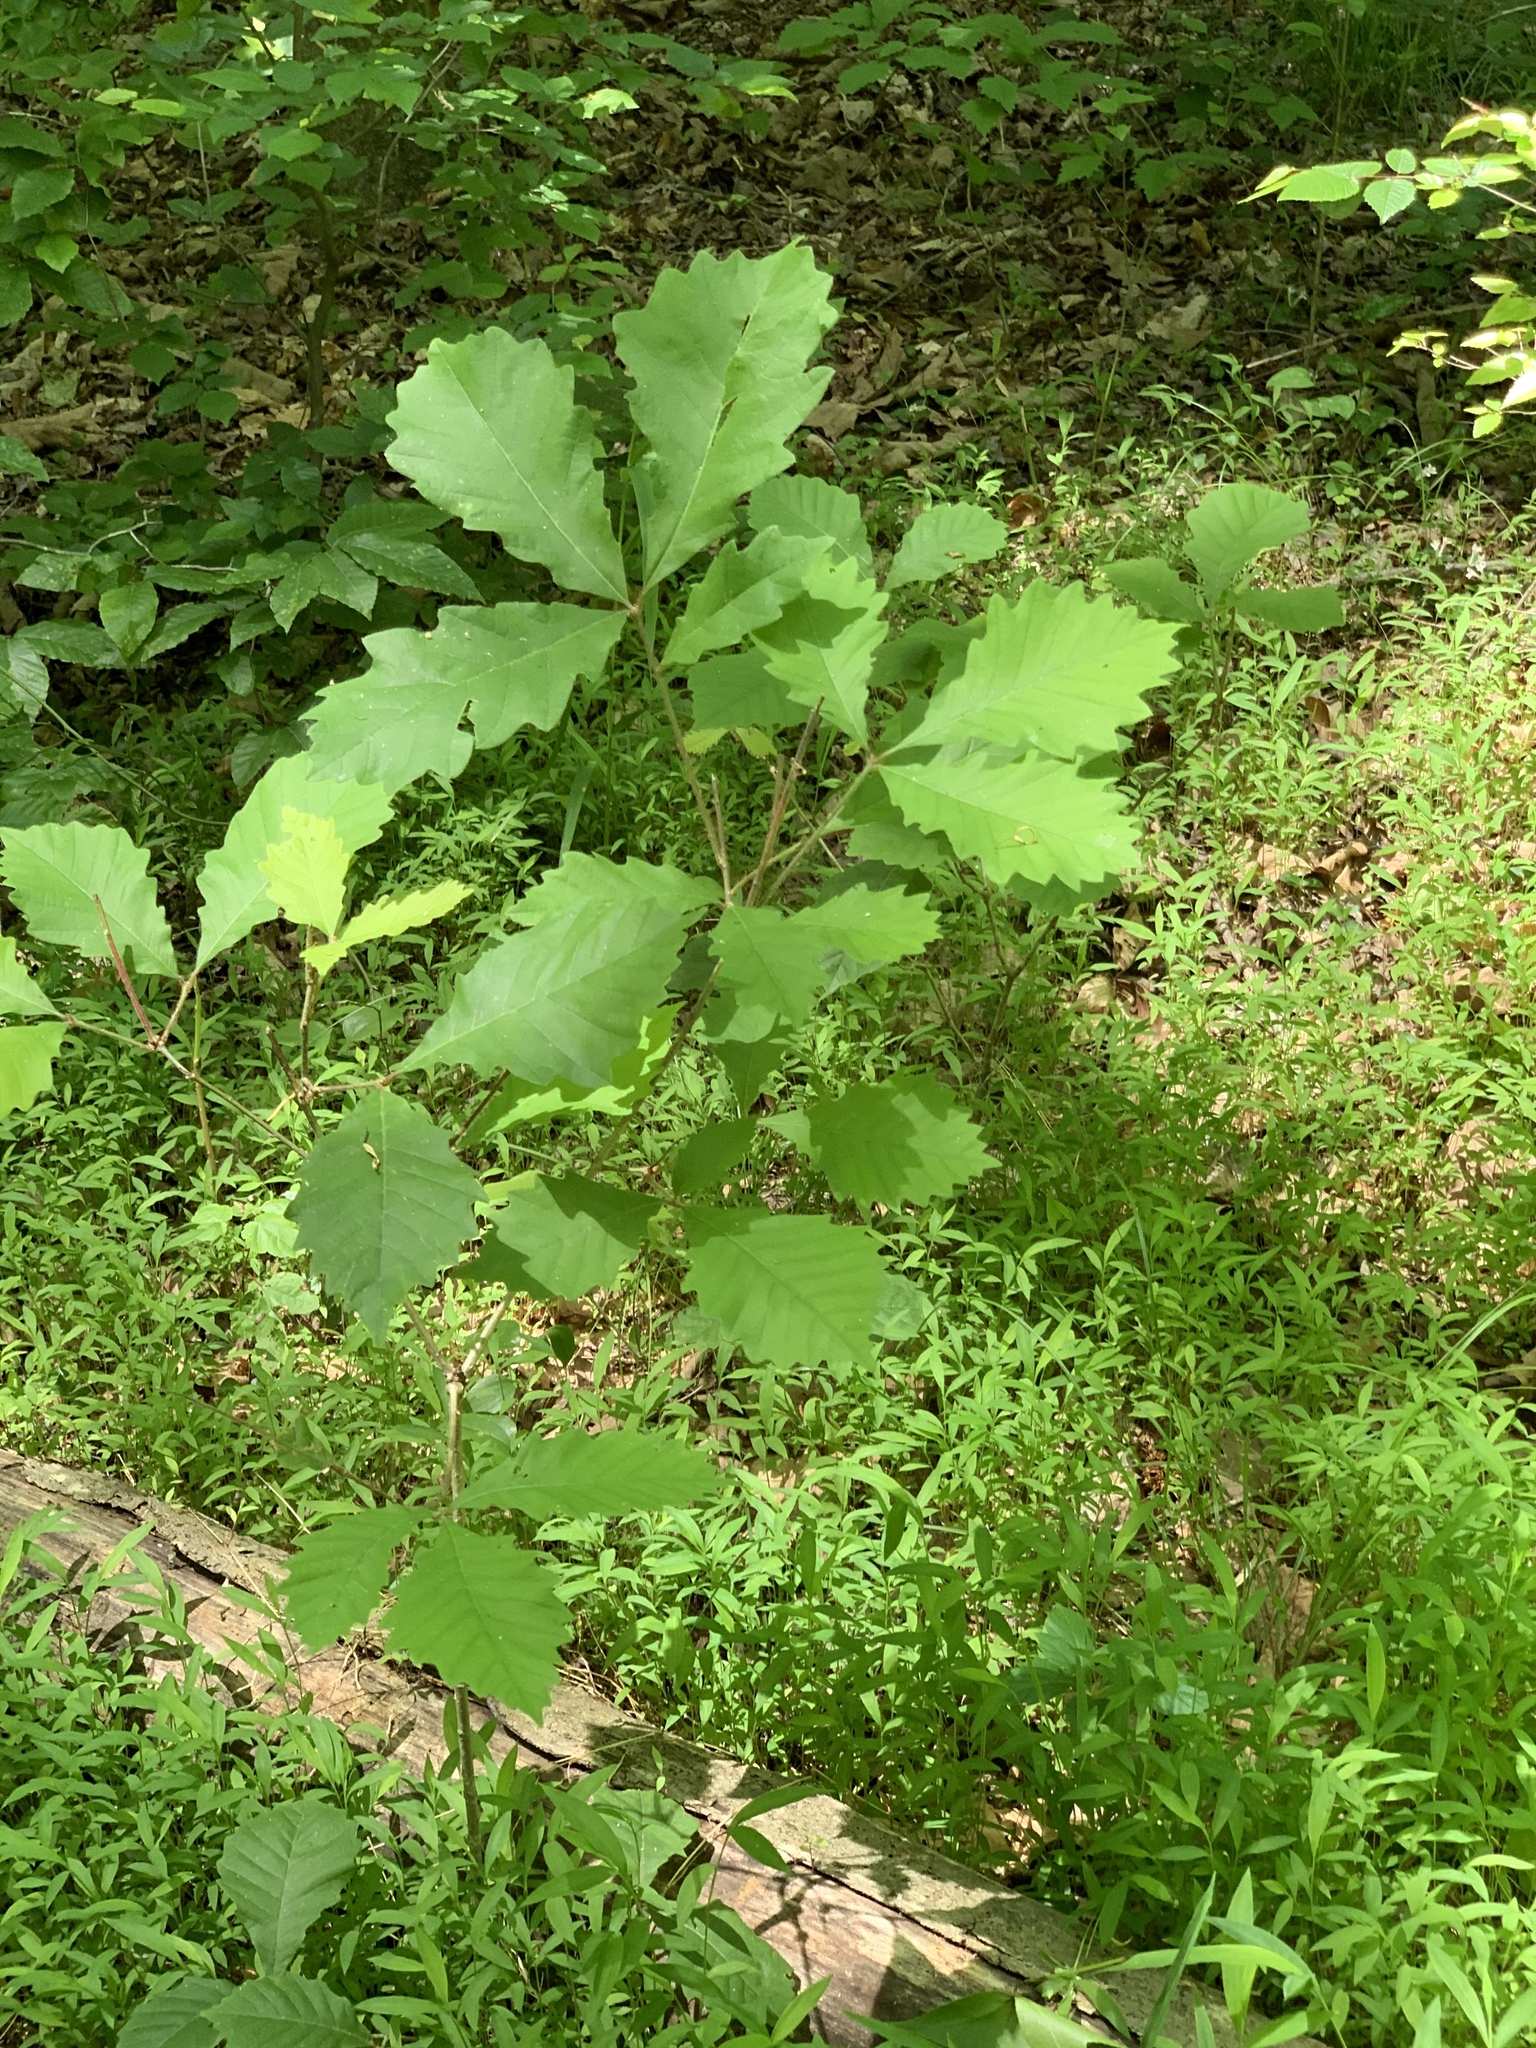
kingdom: Plantae
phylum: Tracheophyta
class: Magnoliopsida
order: Fagales
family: Fagaceae
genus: Quercus
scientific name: Quercus montana
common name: Chestnut oak
